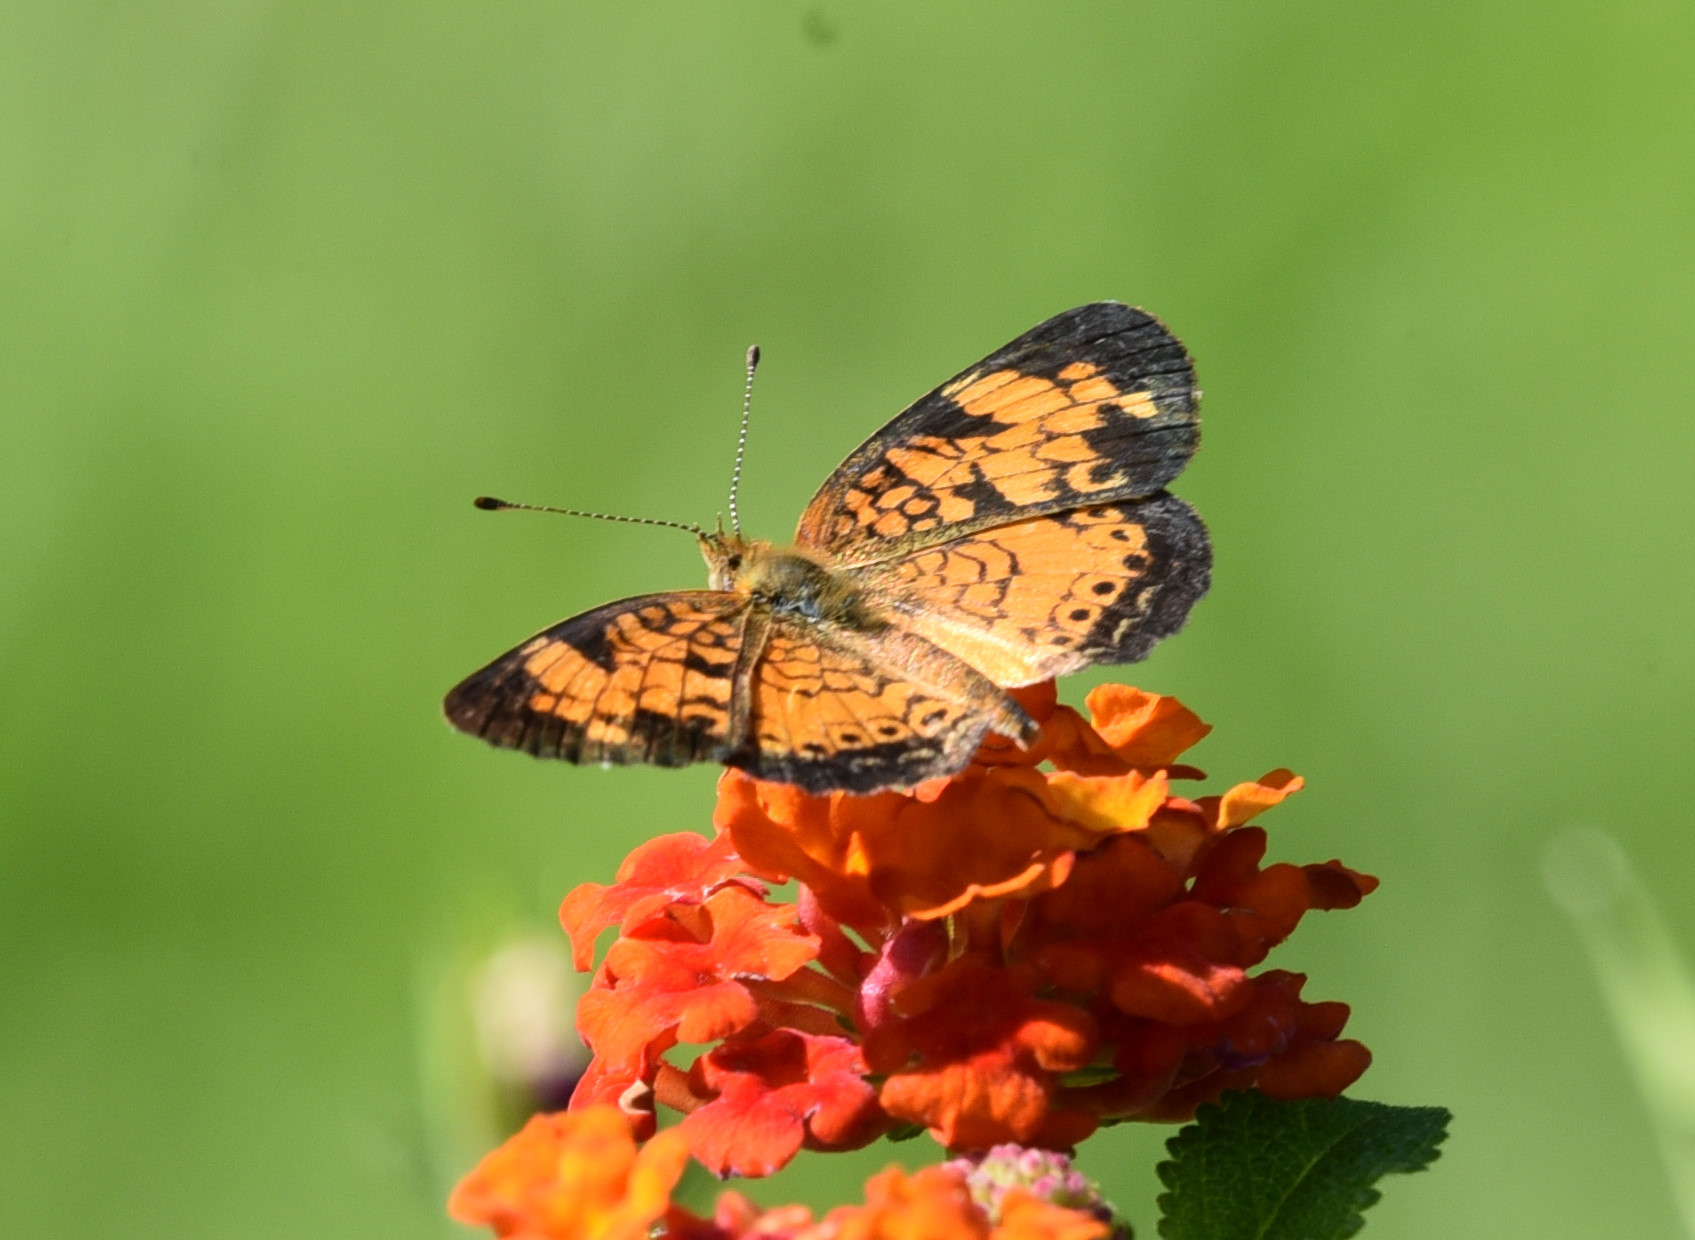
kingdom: Animalia
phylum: Arthropoda
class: Insecta
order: Lepidoptera
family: Nymphalidae
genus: Phyciodes
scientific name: Phyciodes tharos
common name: Pearl crescent
